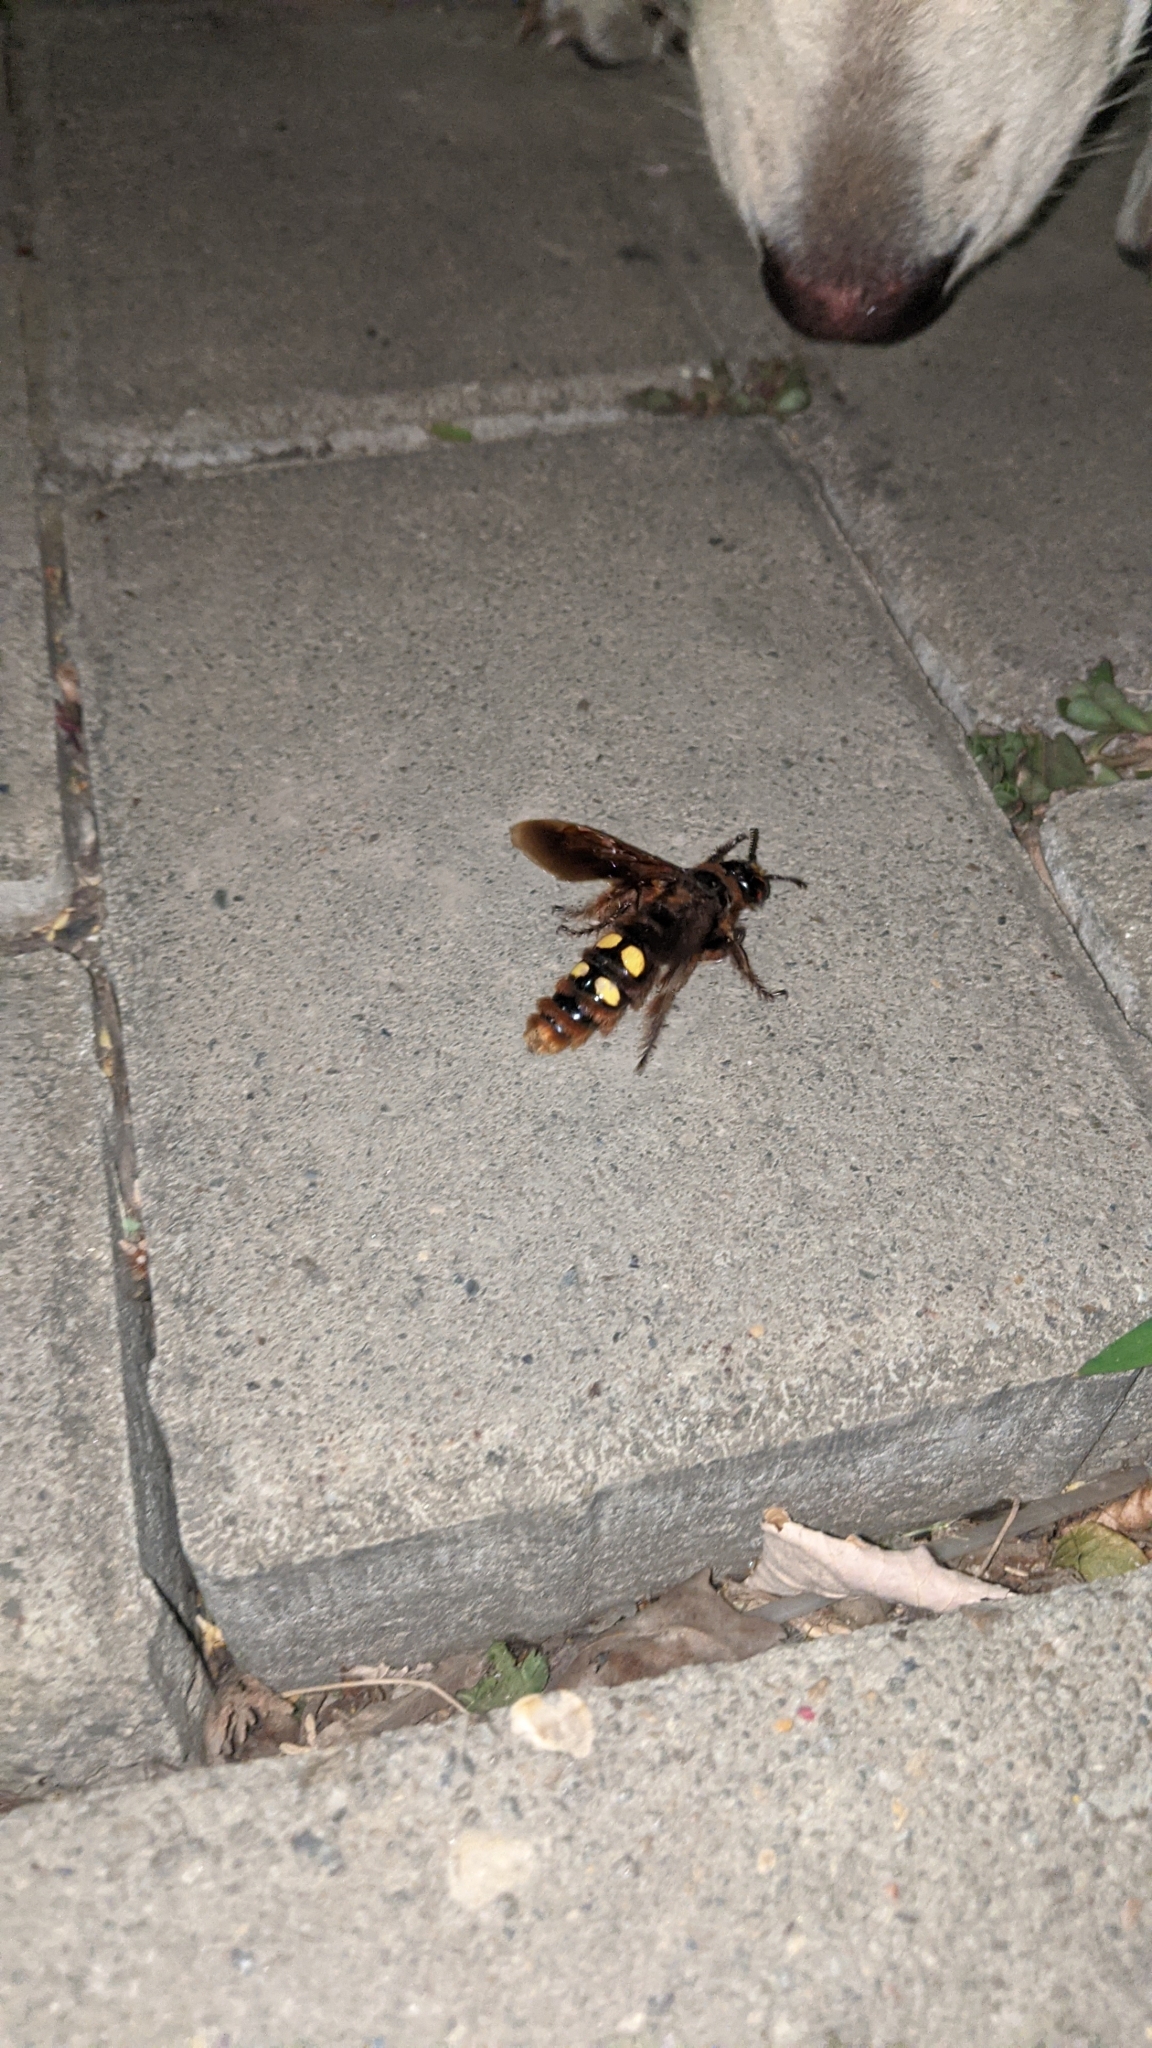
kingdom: Animalia
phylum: Arthropoda
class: Insecta
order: Hymenoptera
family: Scoliidae
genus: Megascolia
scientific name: Megascolia maculata
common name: Mammoth wasp
